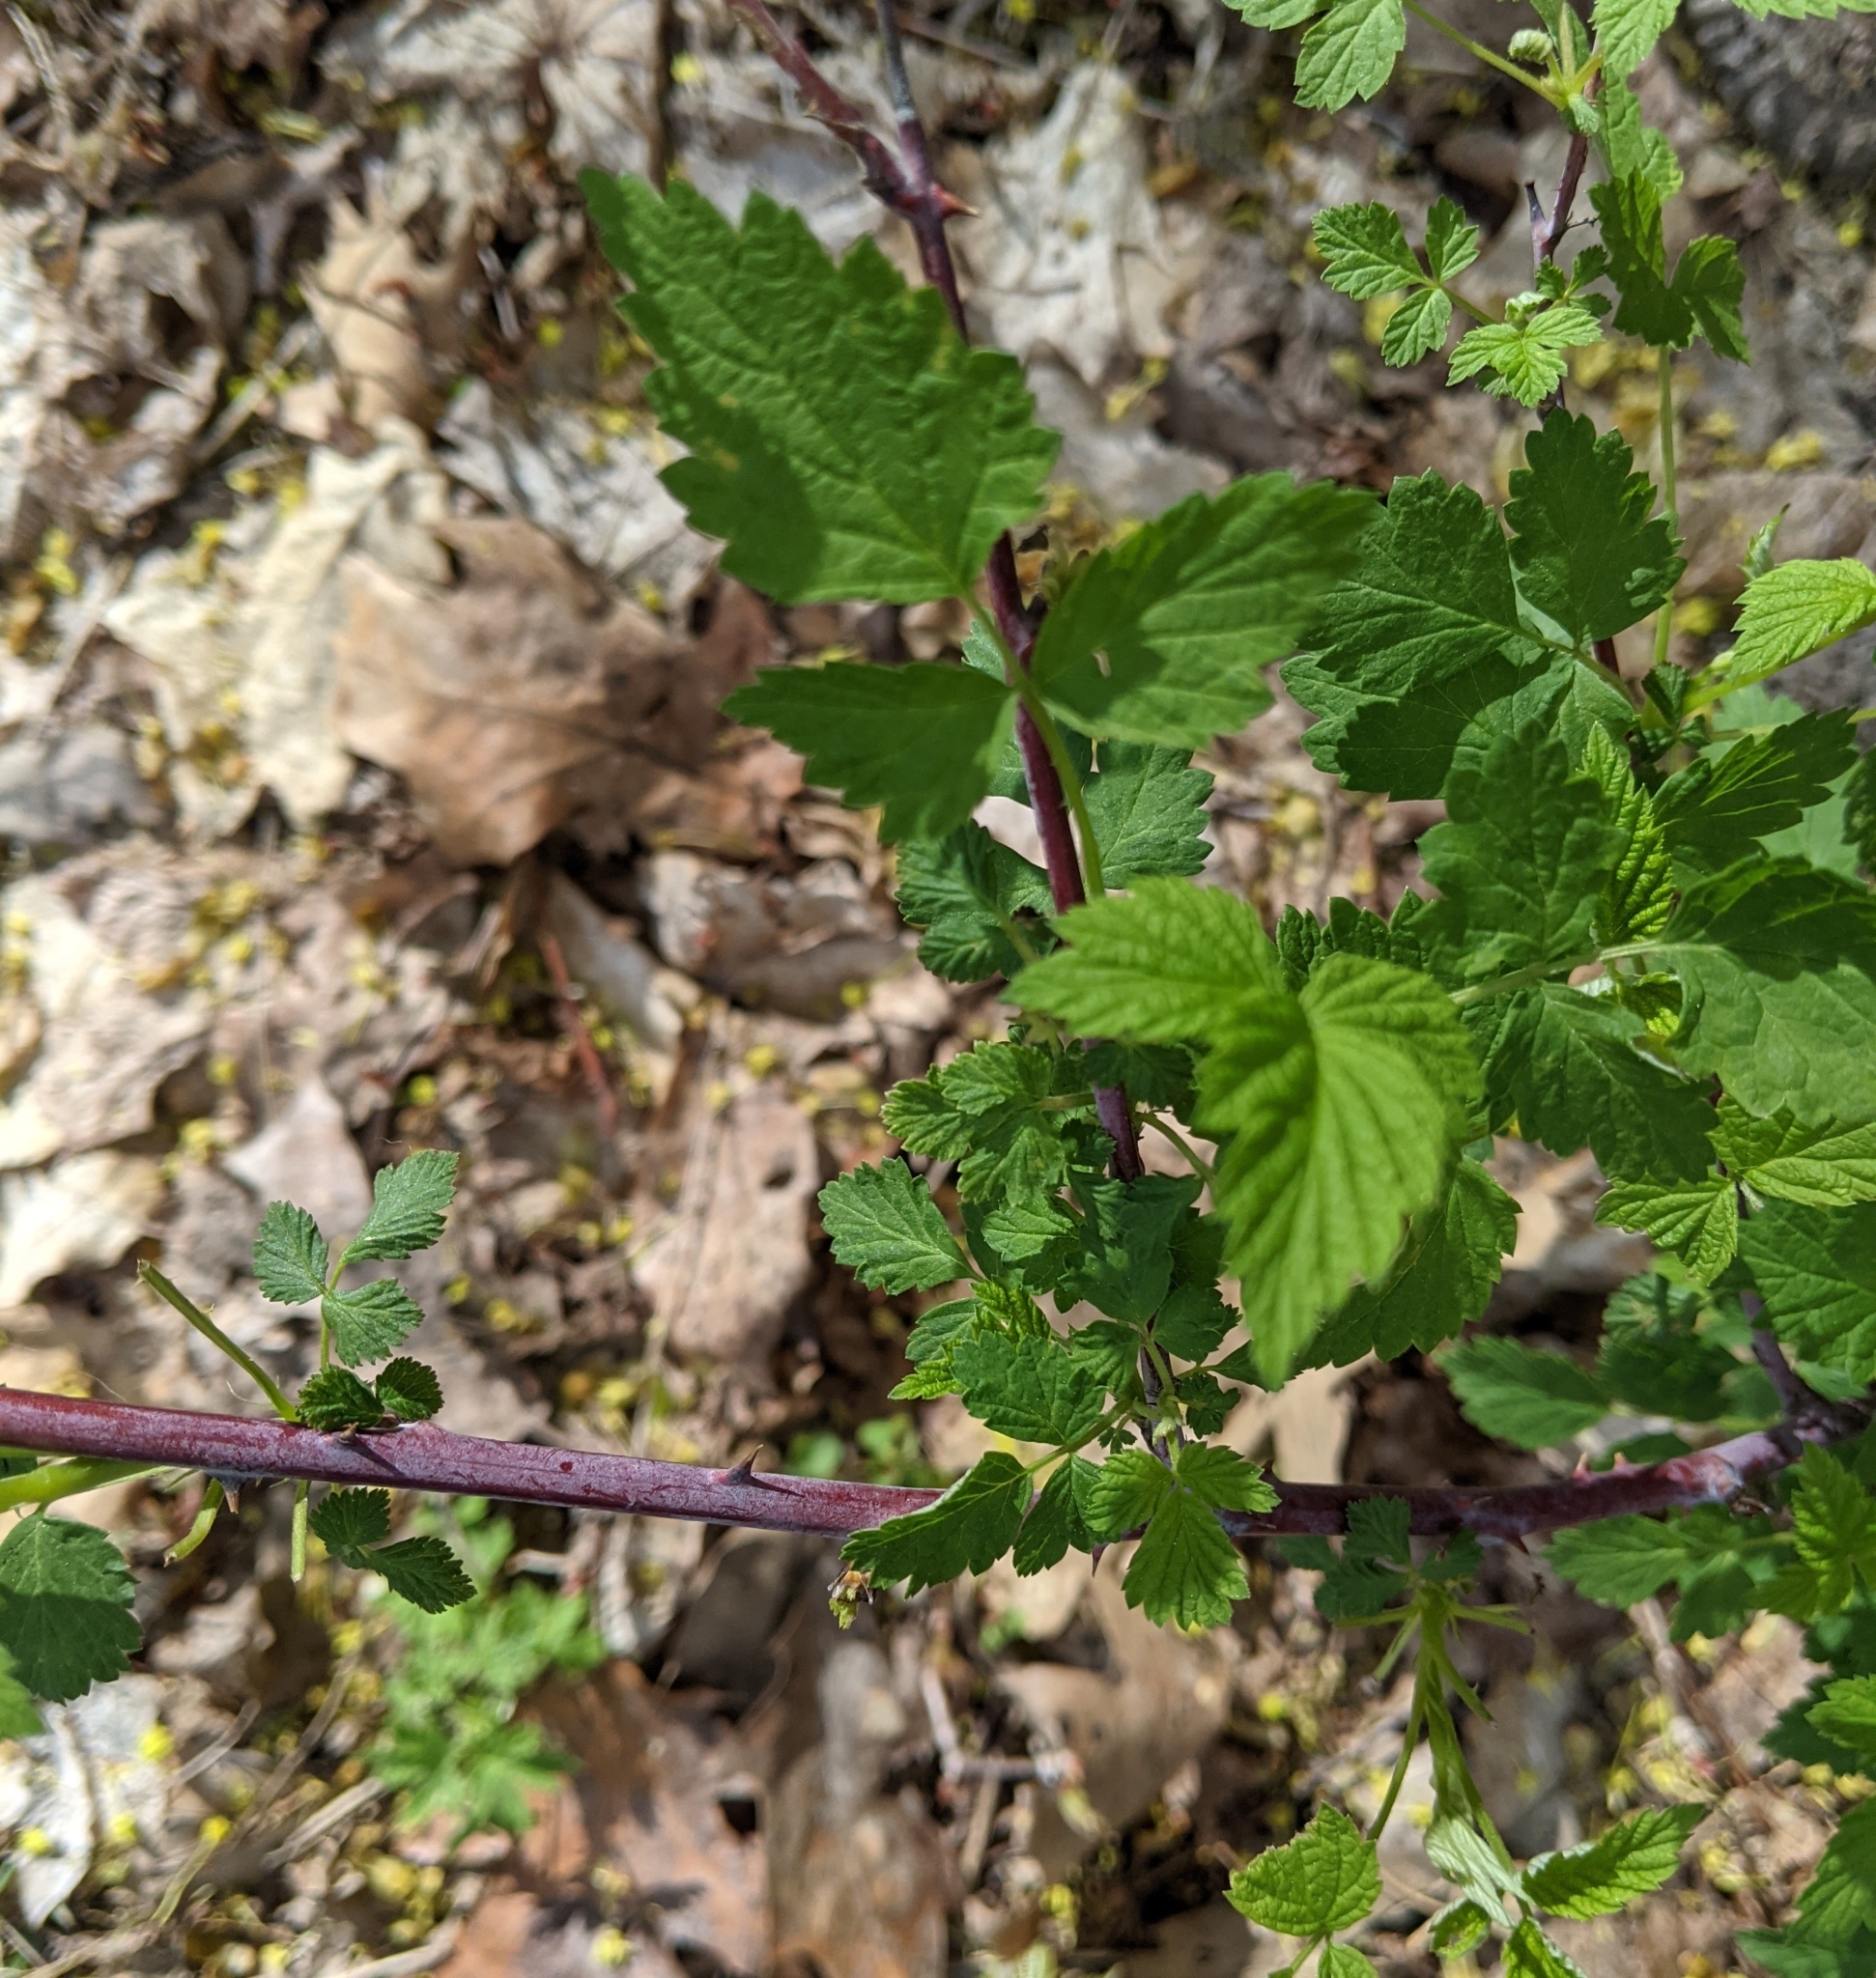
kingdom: Plantae
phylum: Tracheophyta
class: Magnoliopsida
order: Rosales
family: Rosaceae
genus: Rubus
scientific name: Rubus occidentalis
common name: Black raspberry
